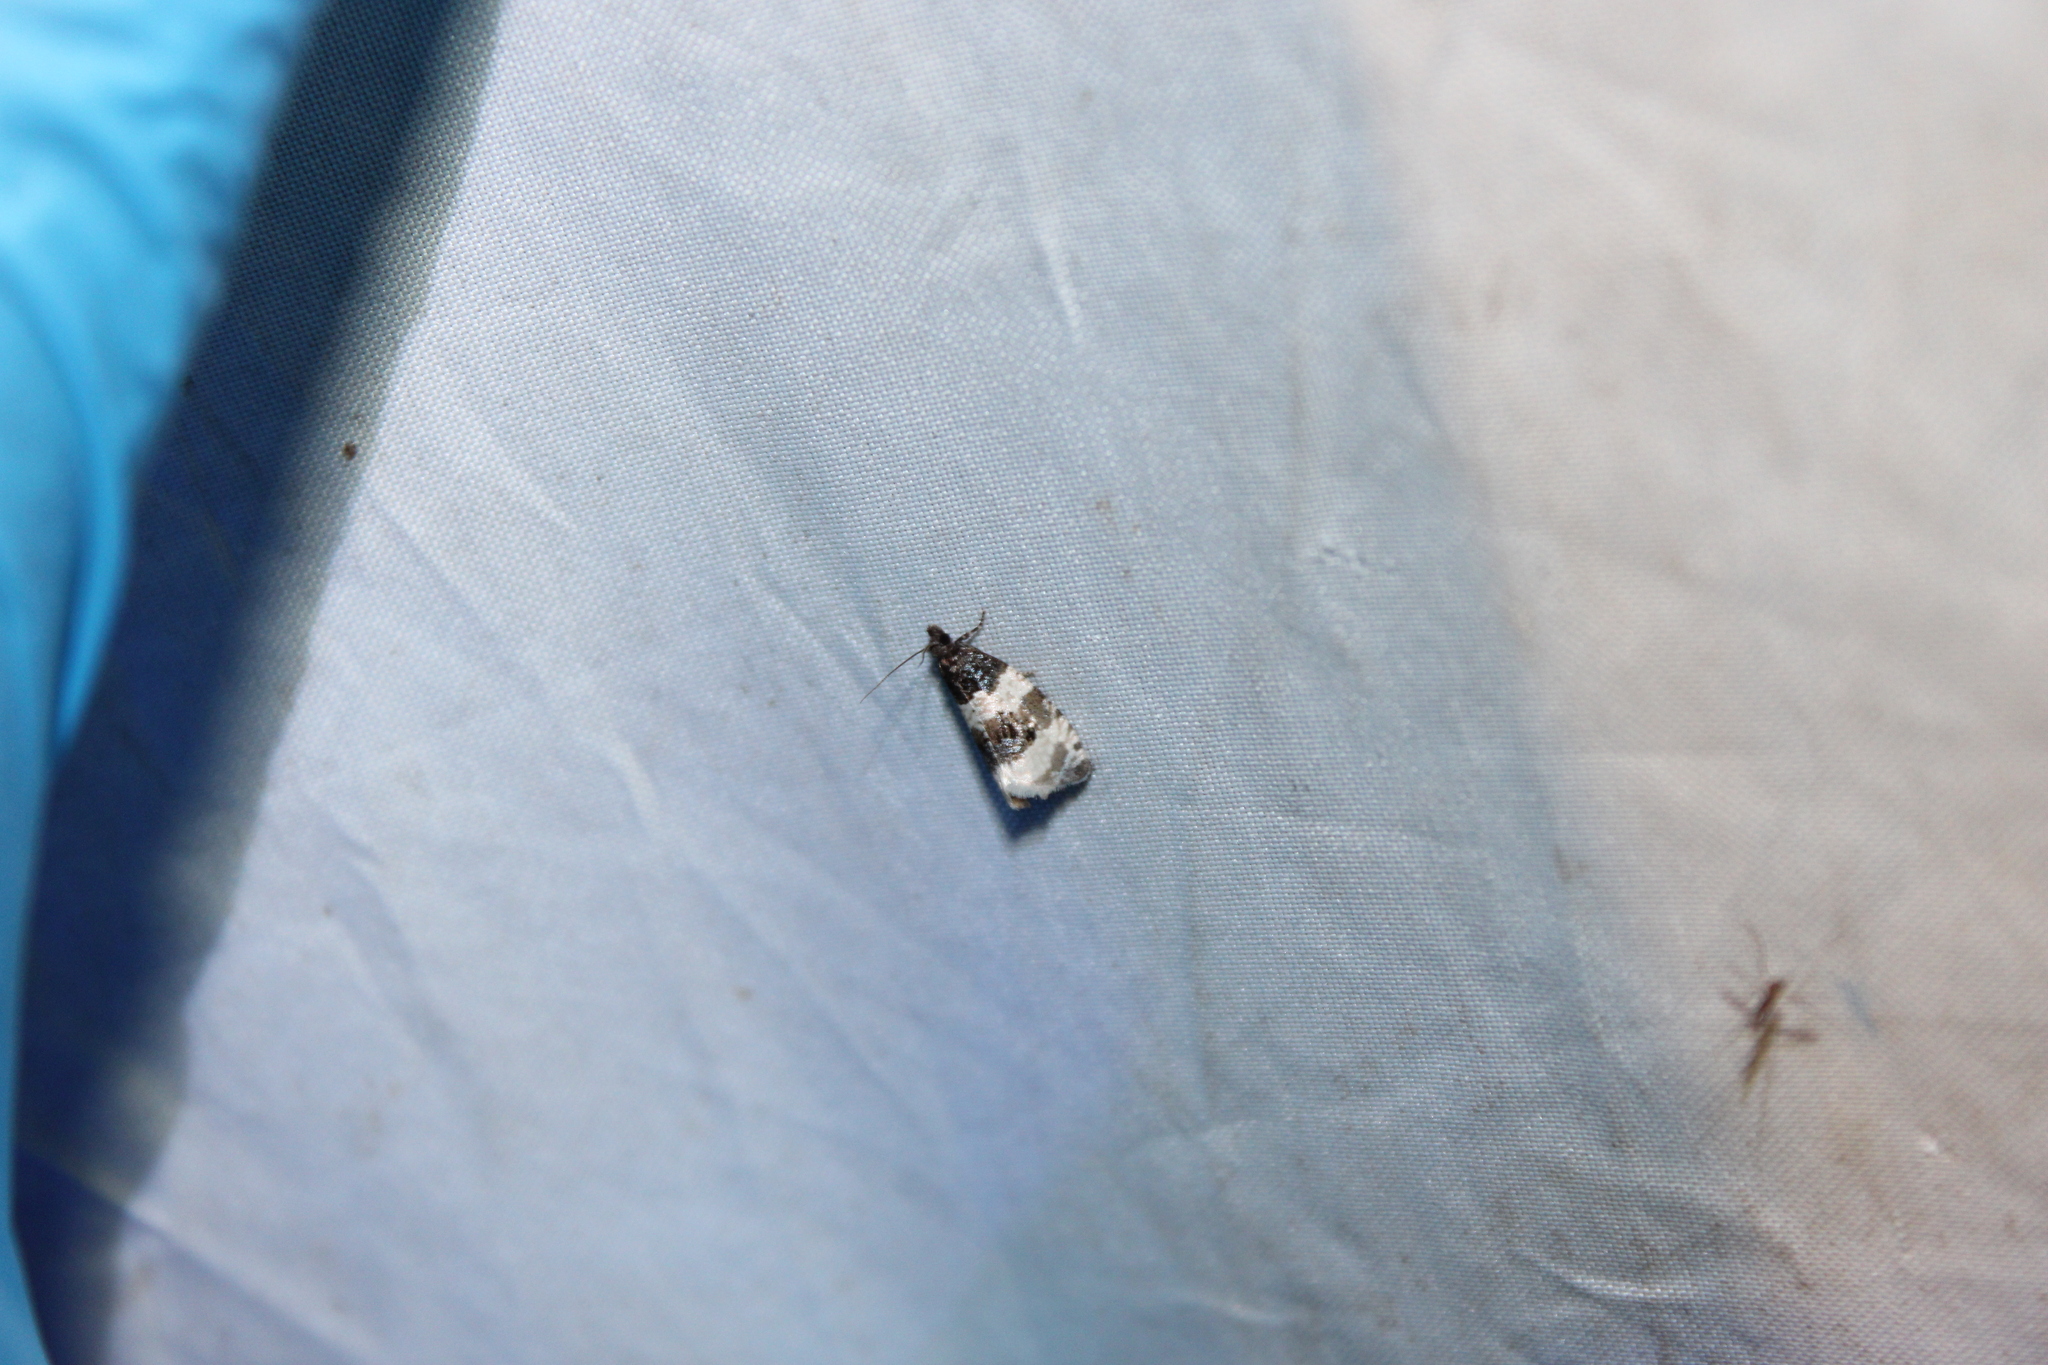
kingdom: Animalia
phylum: Arthropoda
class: Insecta
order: Lepidoptera
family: Tortricidae
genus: Olethreutes
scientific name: Olethreutes bipartitana
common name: Divided olethreutes moth
